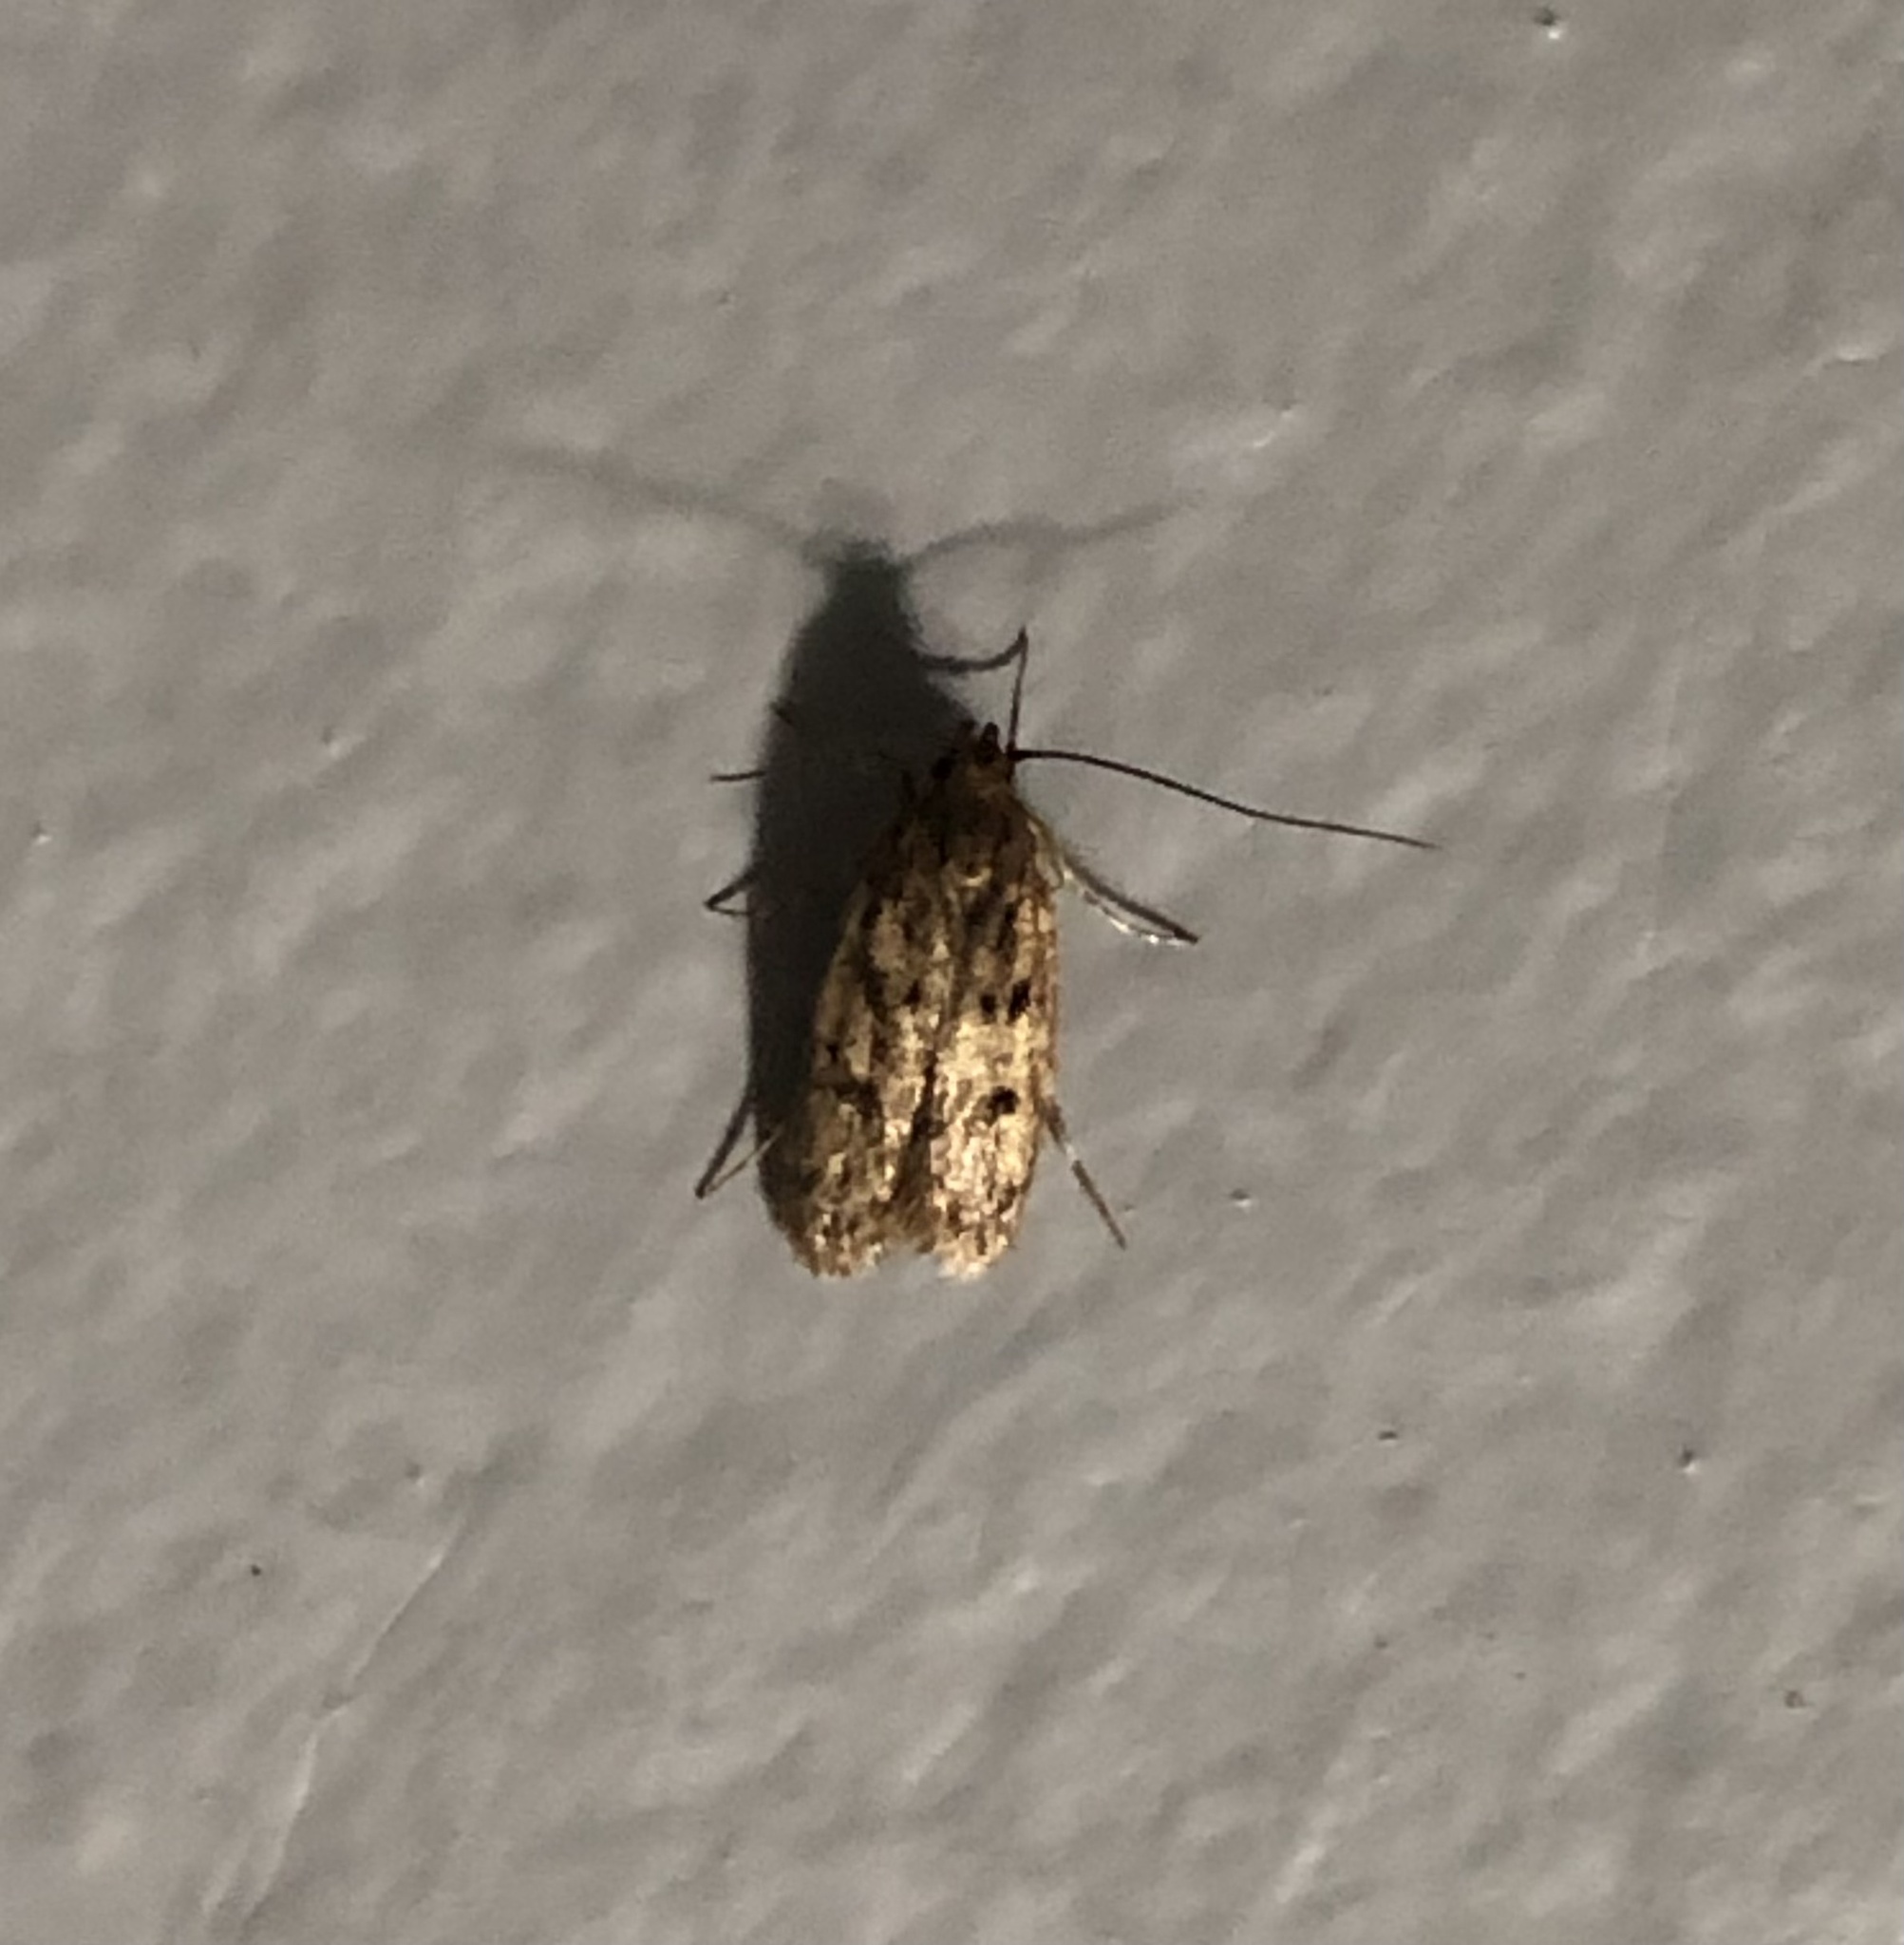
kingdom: Animalia
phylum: Arthropoda
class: Insecta
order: Lepidoptera
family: Oecophoridae
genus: Hofmannophila
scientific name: Hofmannophila pseudospretella
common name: Brown house moth
